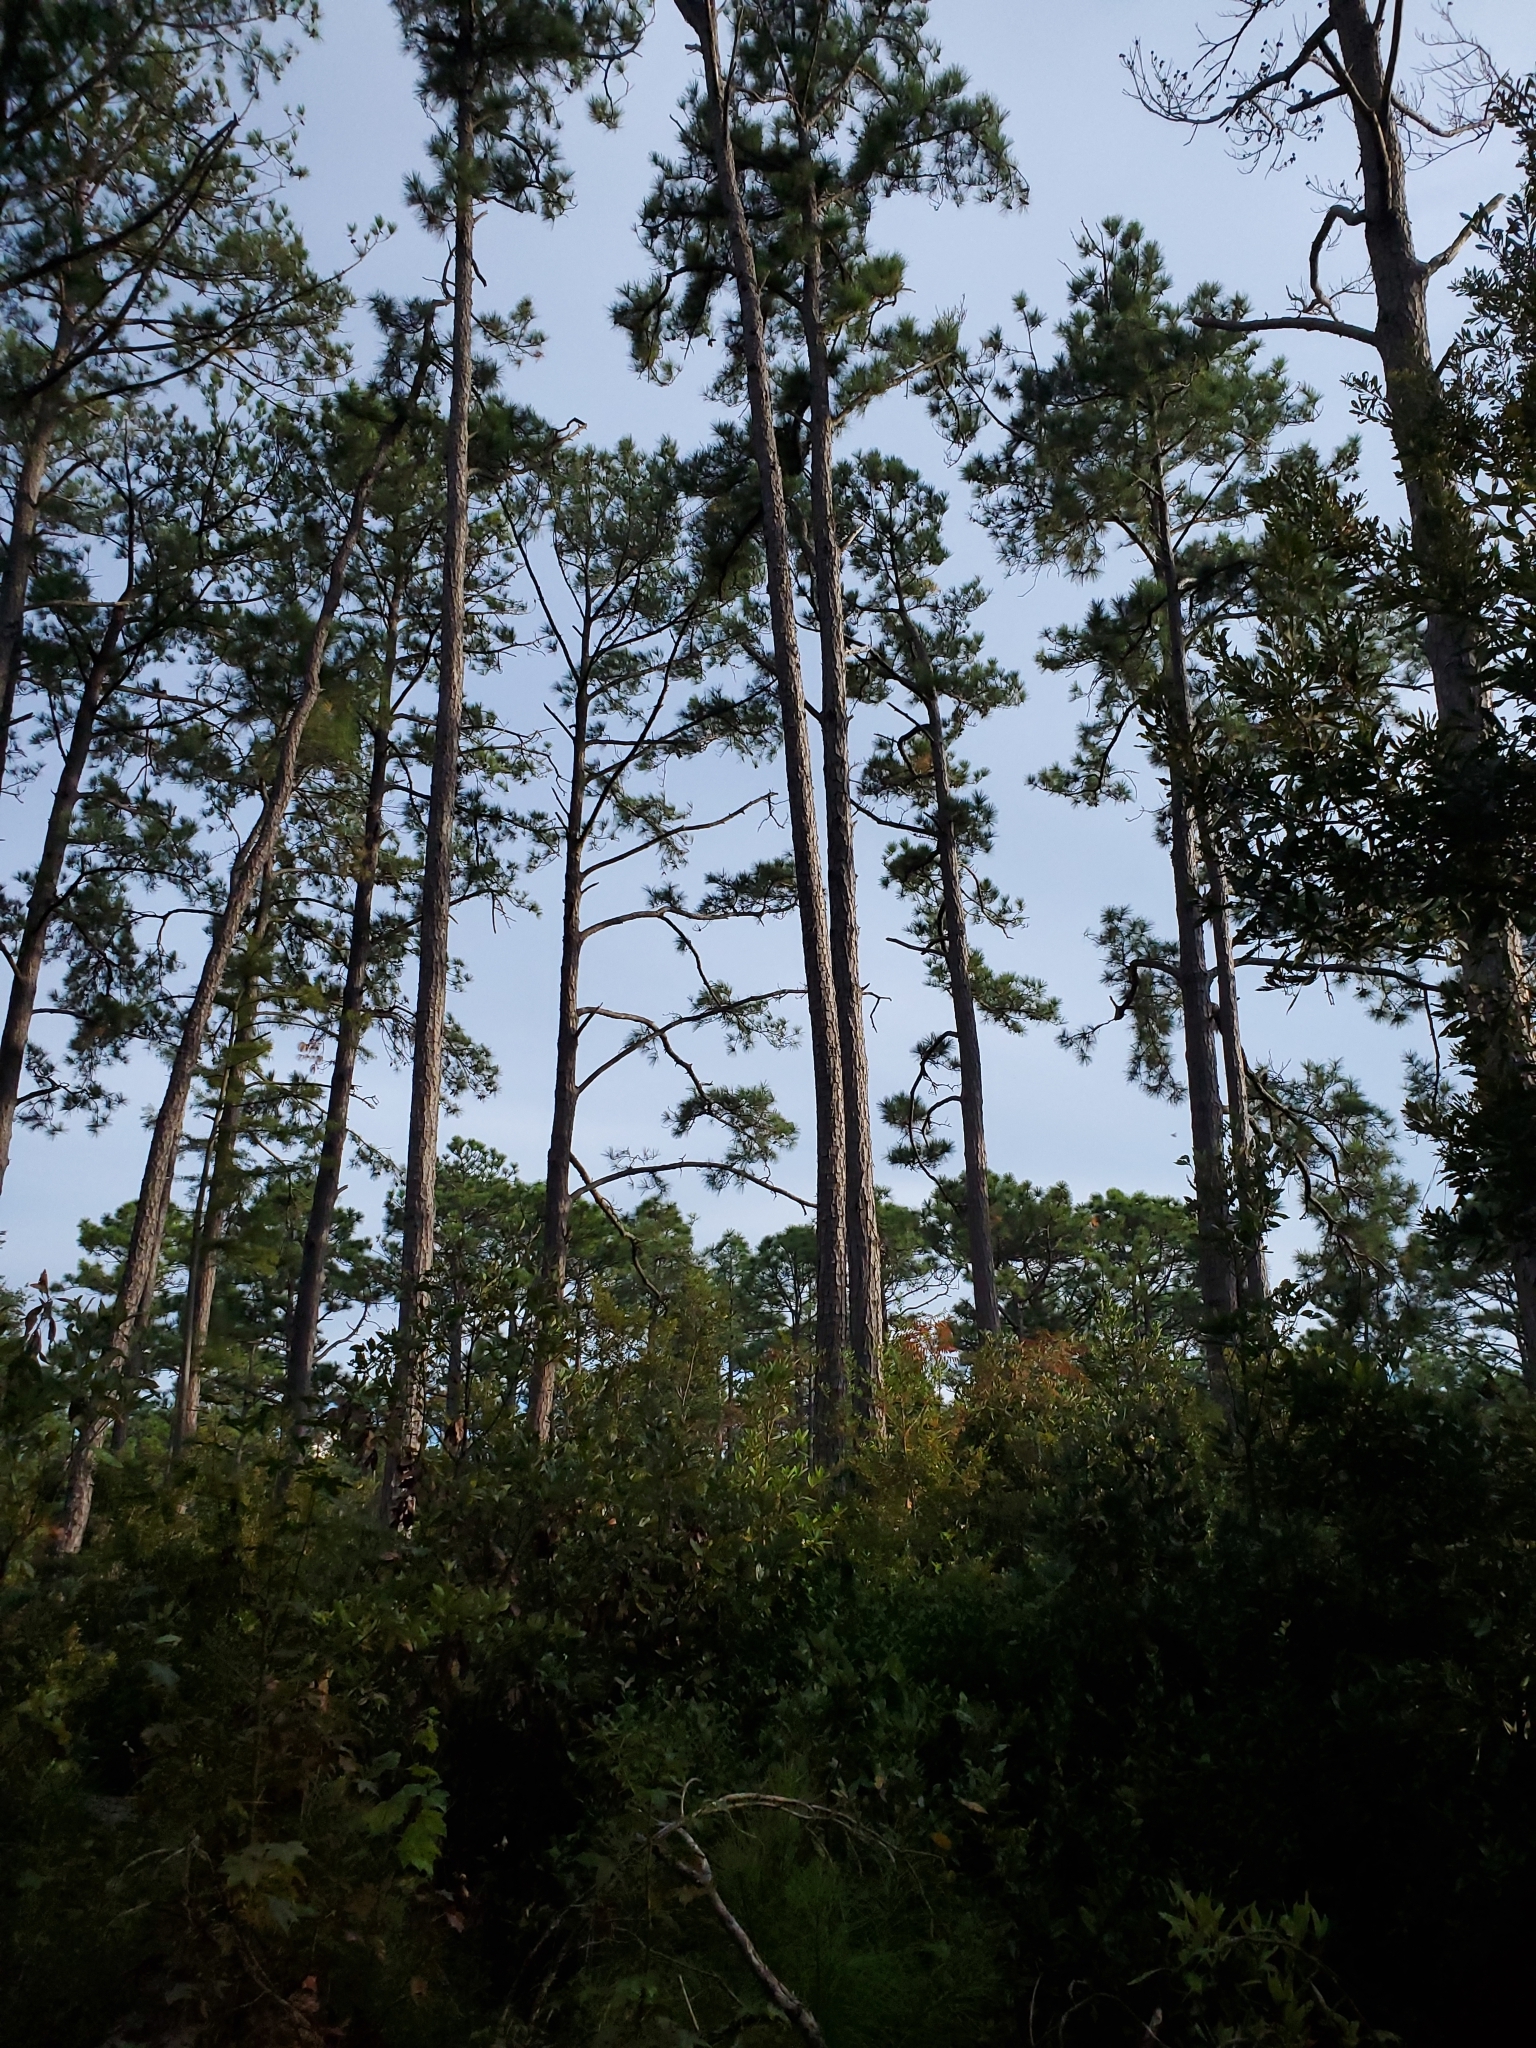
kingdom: Plantae
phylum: Tracheophyta
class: Pinopsida
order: Pinales
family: Pinaceae
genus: Pinus
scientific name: Pinus palustris
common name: Longleaf pine
